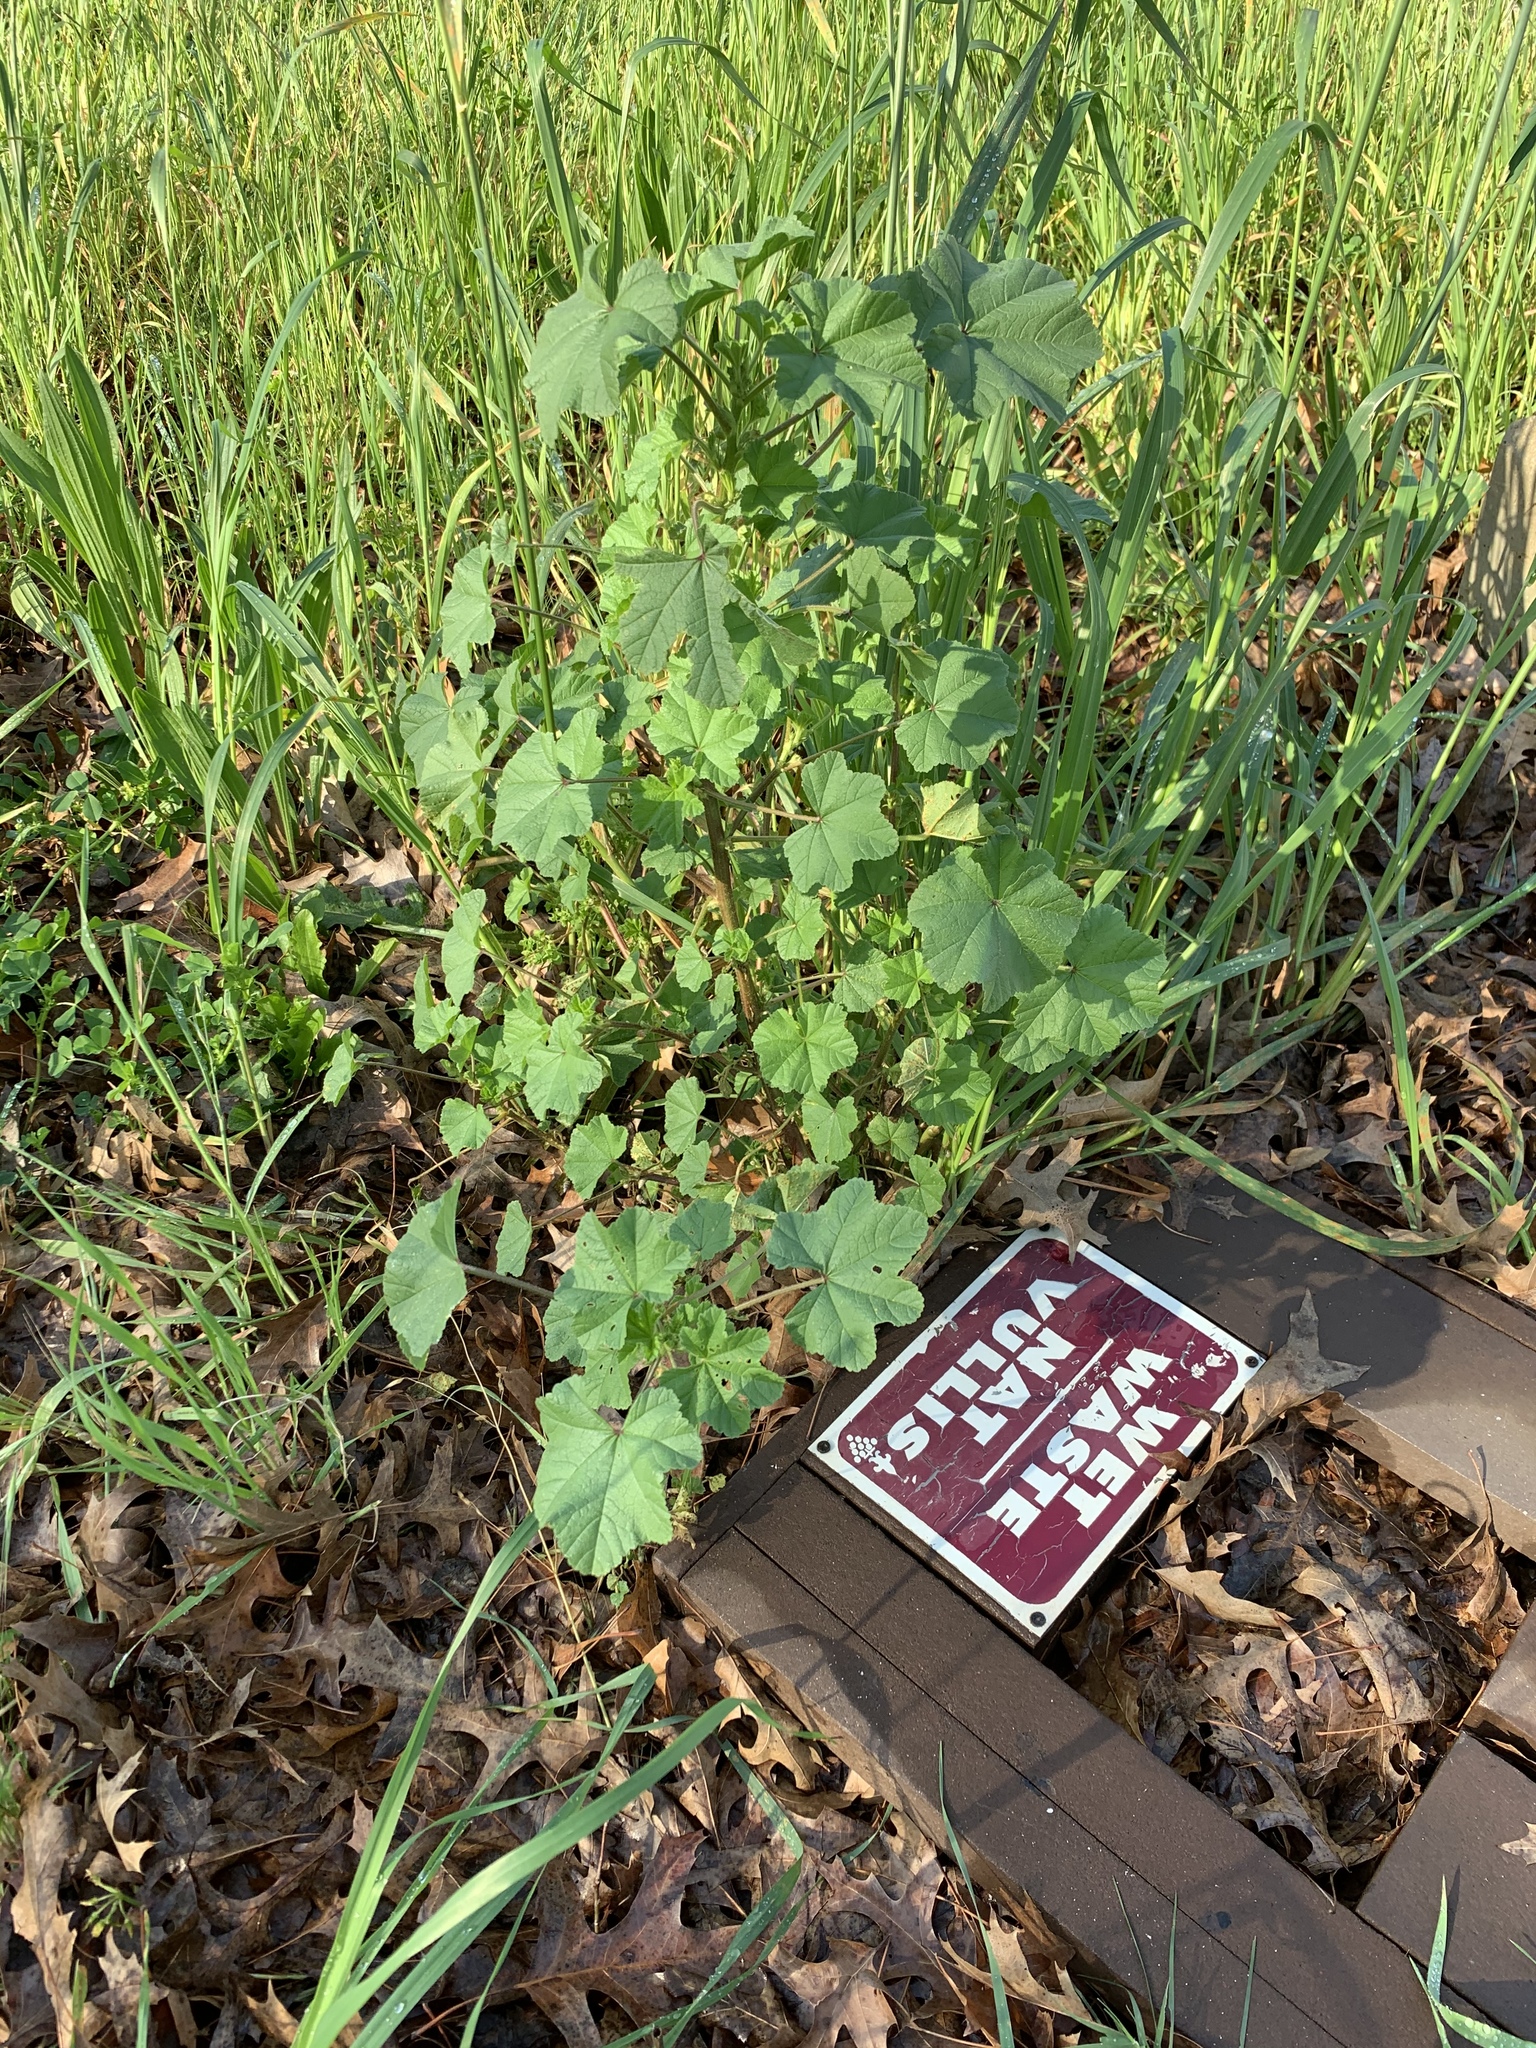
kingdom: Plantae
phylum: Tracheophyta
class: Magnoliopsida
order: Malvales
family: Malvaceae
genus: Malva
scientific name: Malva parviflora
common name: Least mallow
